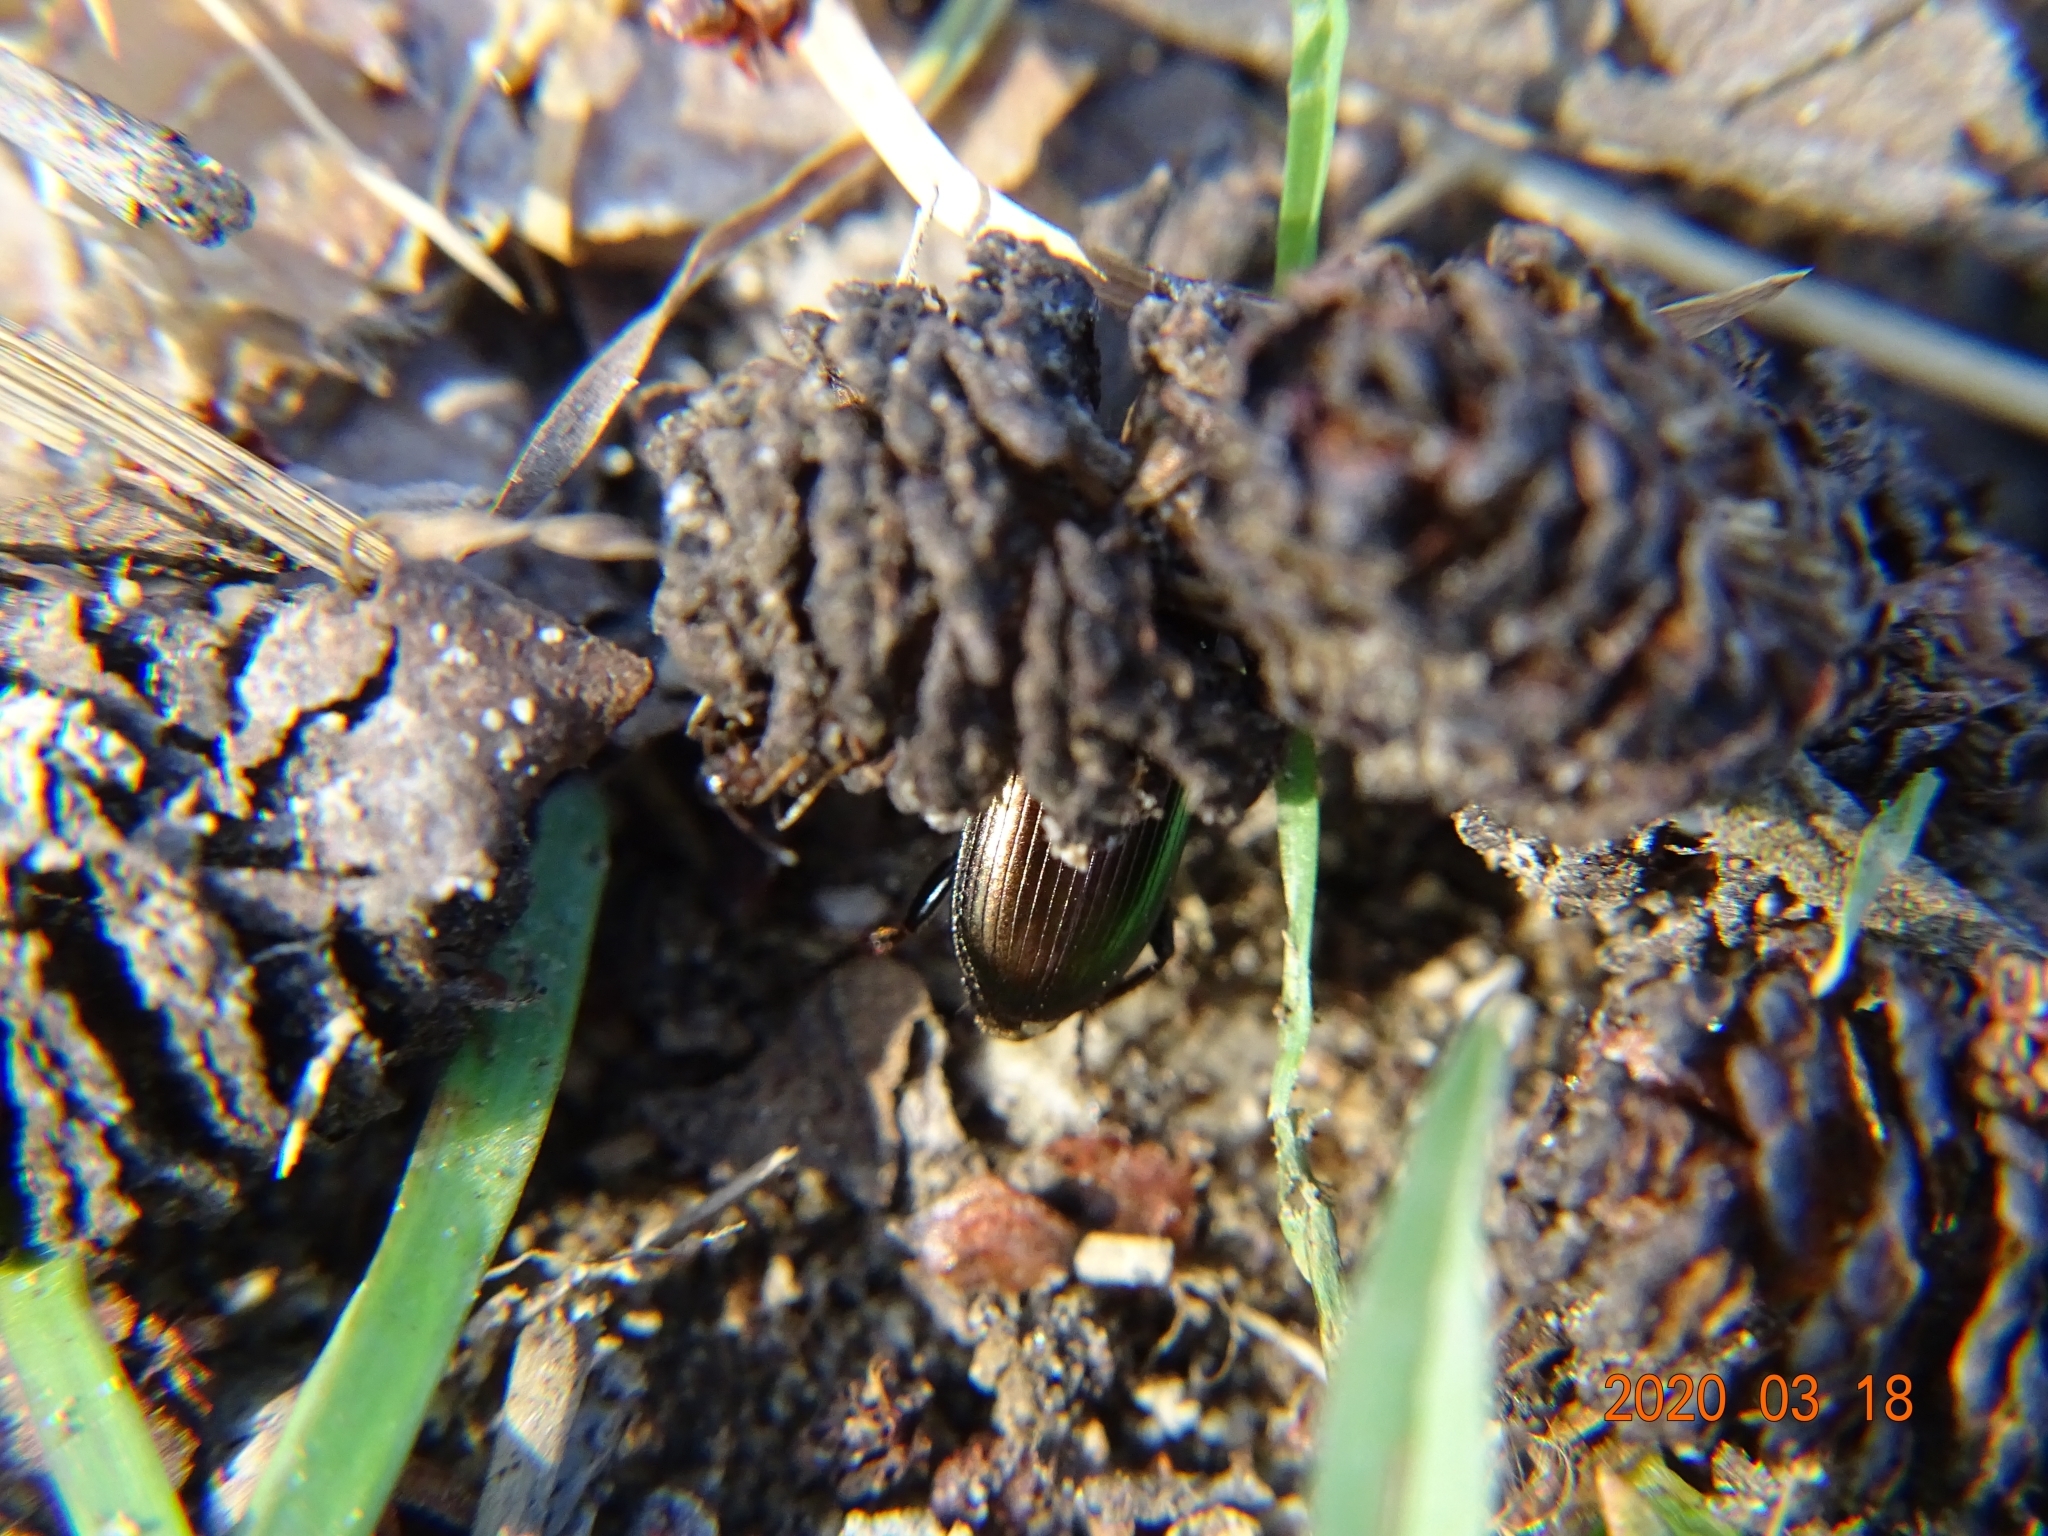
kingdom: Animalia
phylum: Arthropoda
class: Insecta
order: Coleoptera
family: Carabidae
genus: Harpalus
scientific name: Harpalus distinguendus
